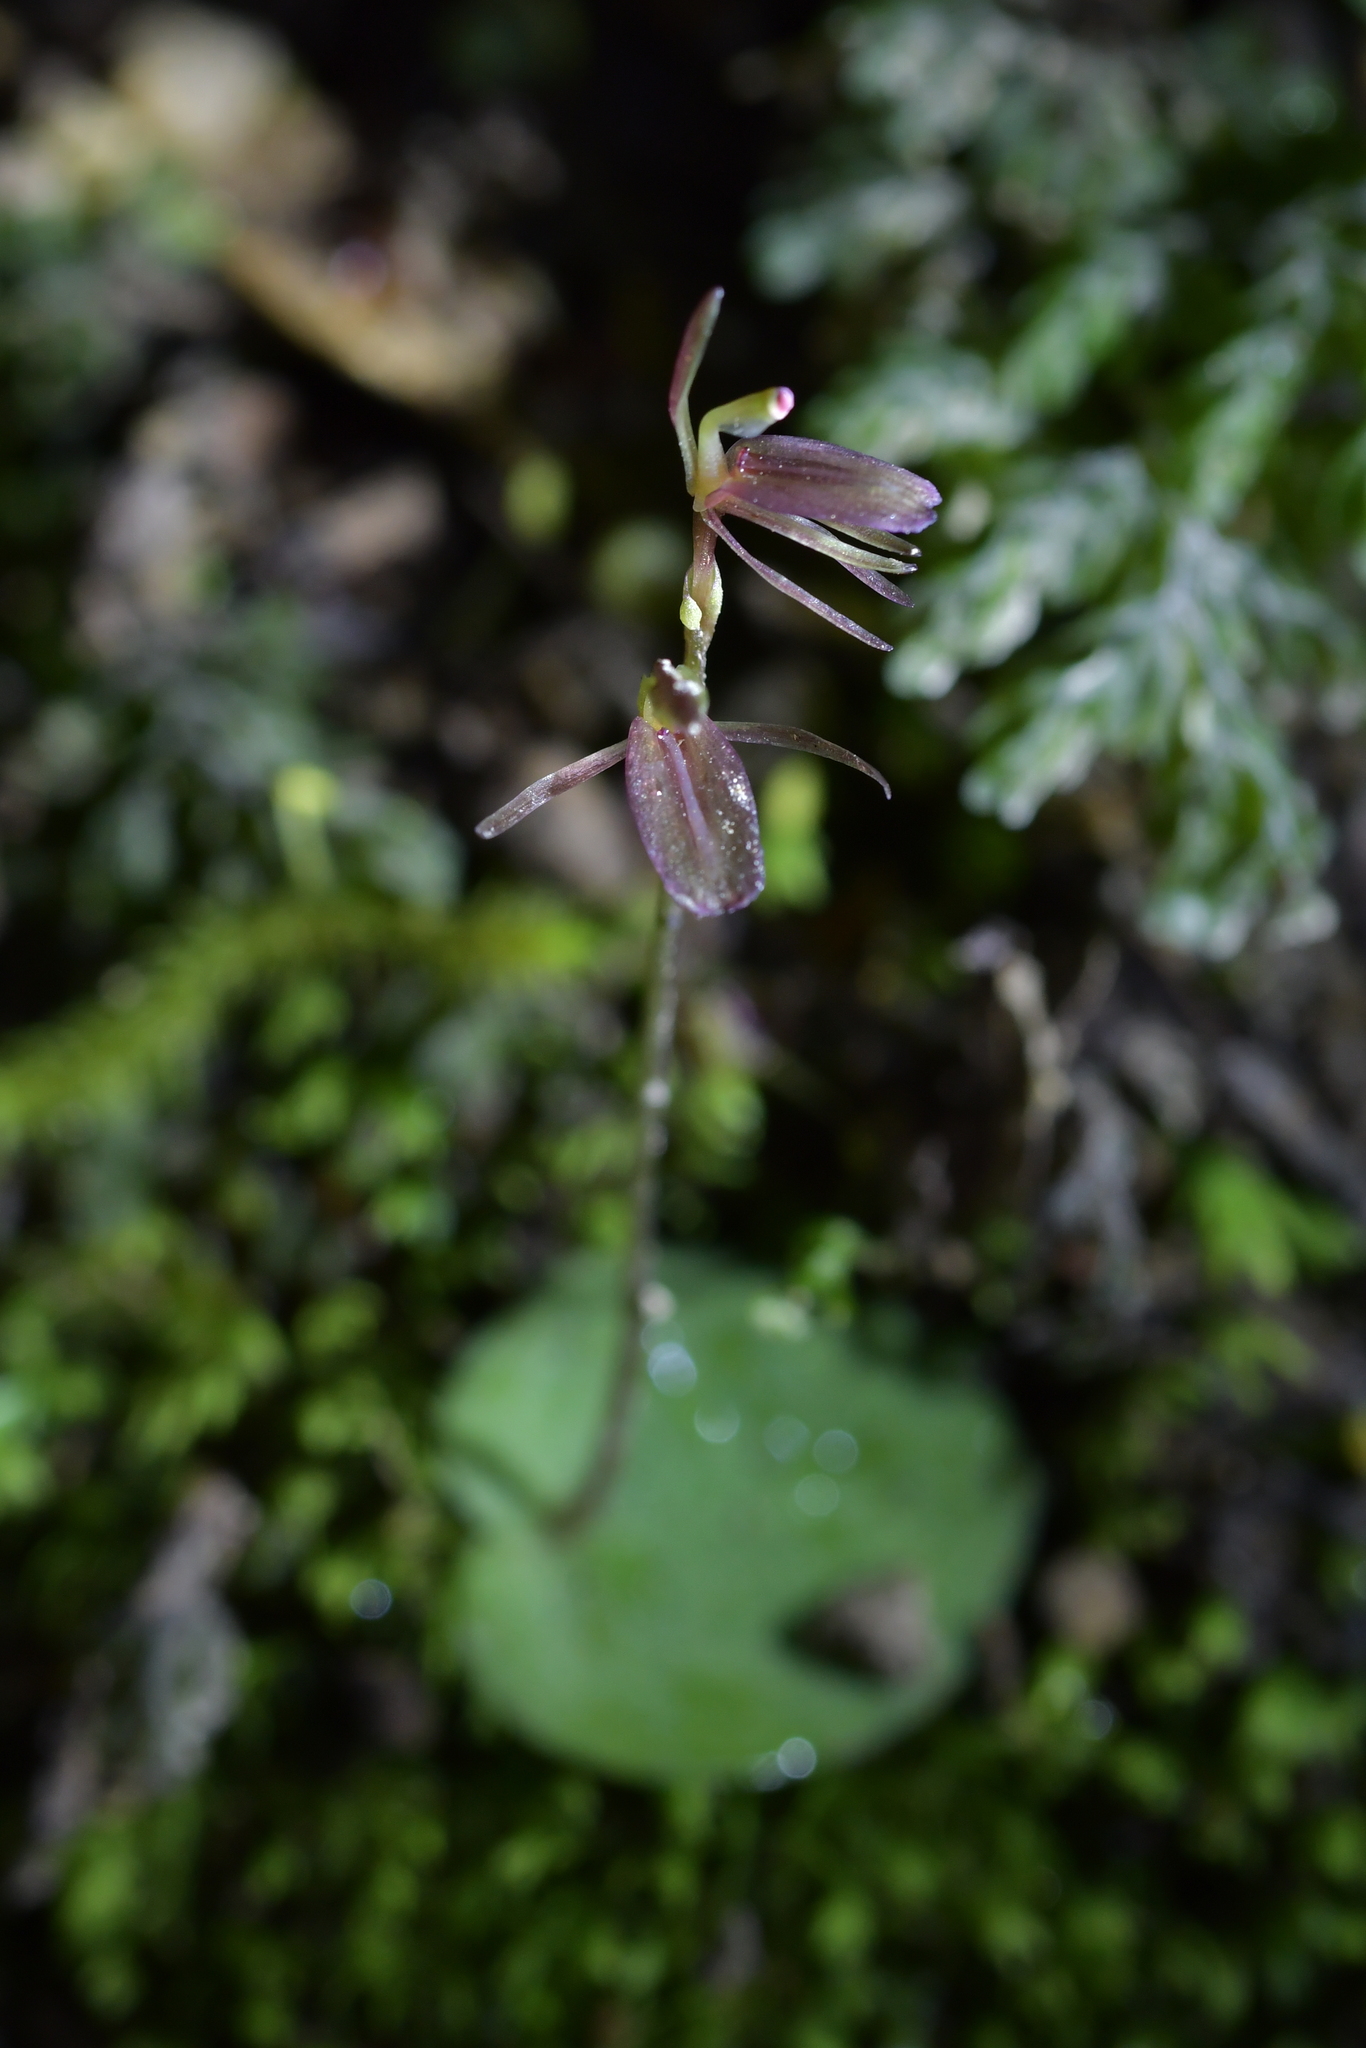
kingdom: Plantae
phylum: Tracheophyta
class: Liliopsida
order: Asparagales
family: Orchidaceae
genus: Cyrtostylis
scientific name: Cyrtostylis rotundifolia
